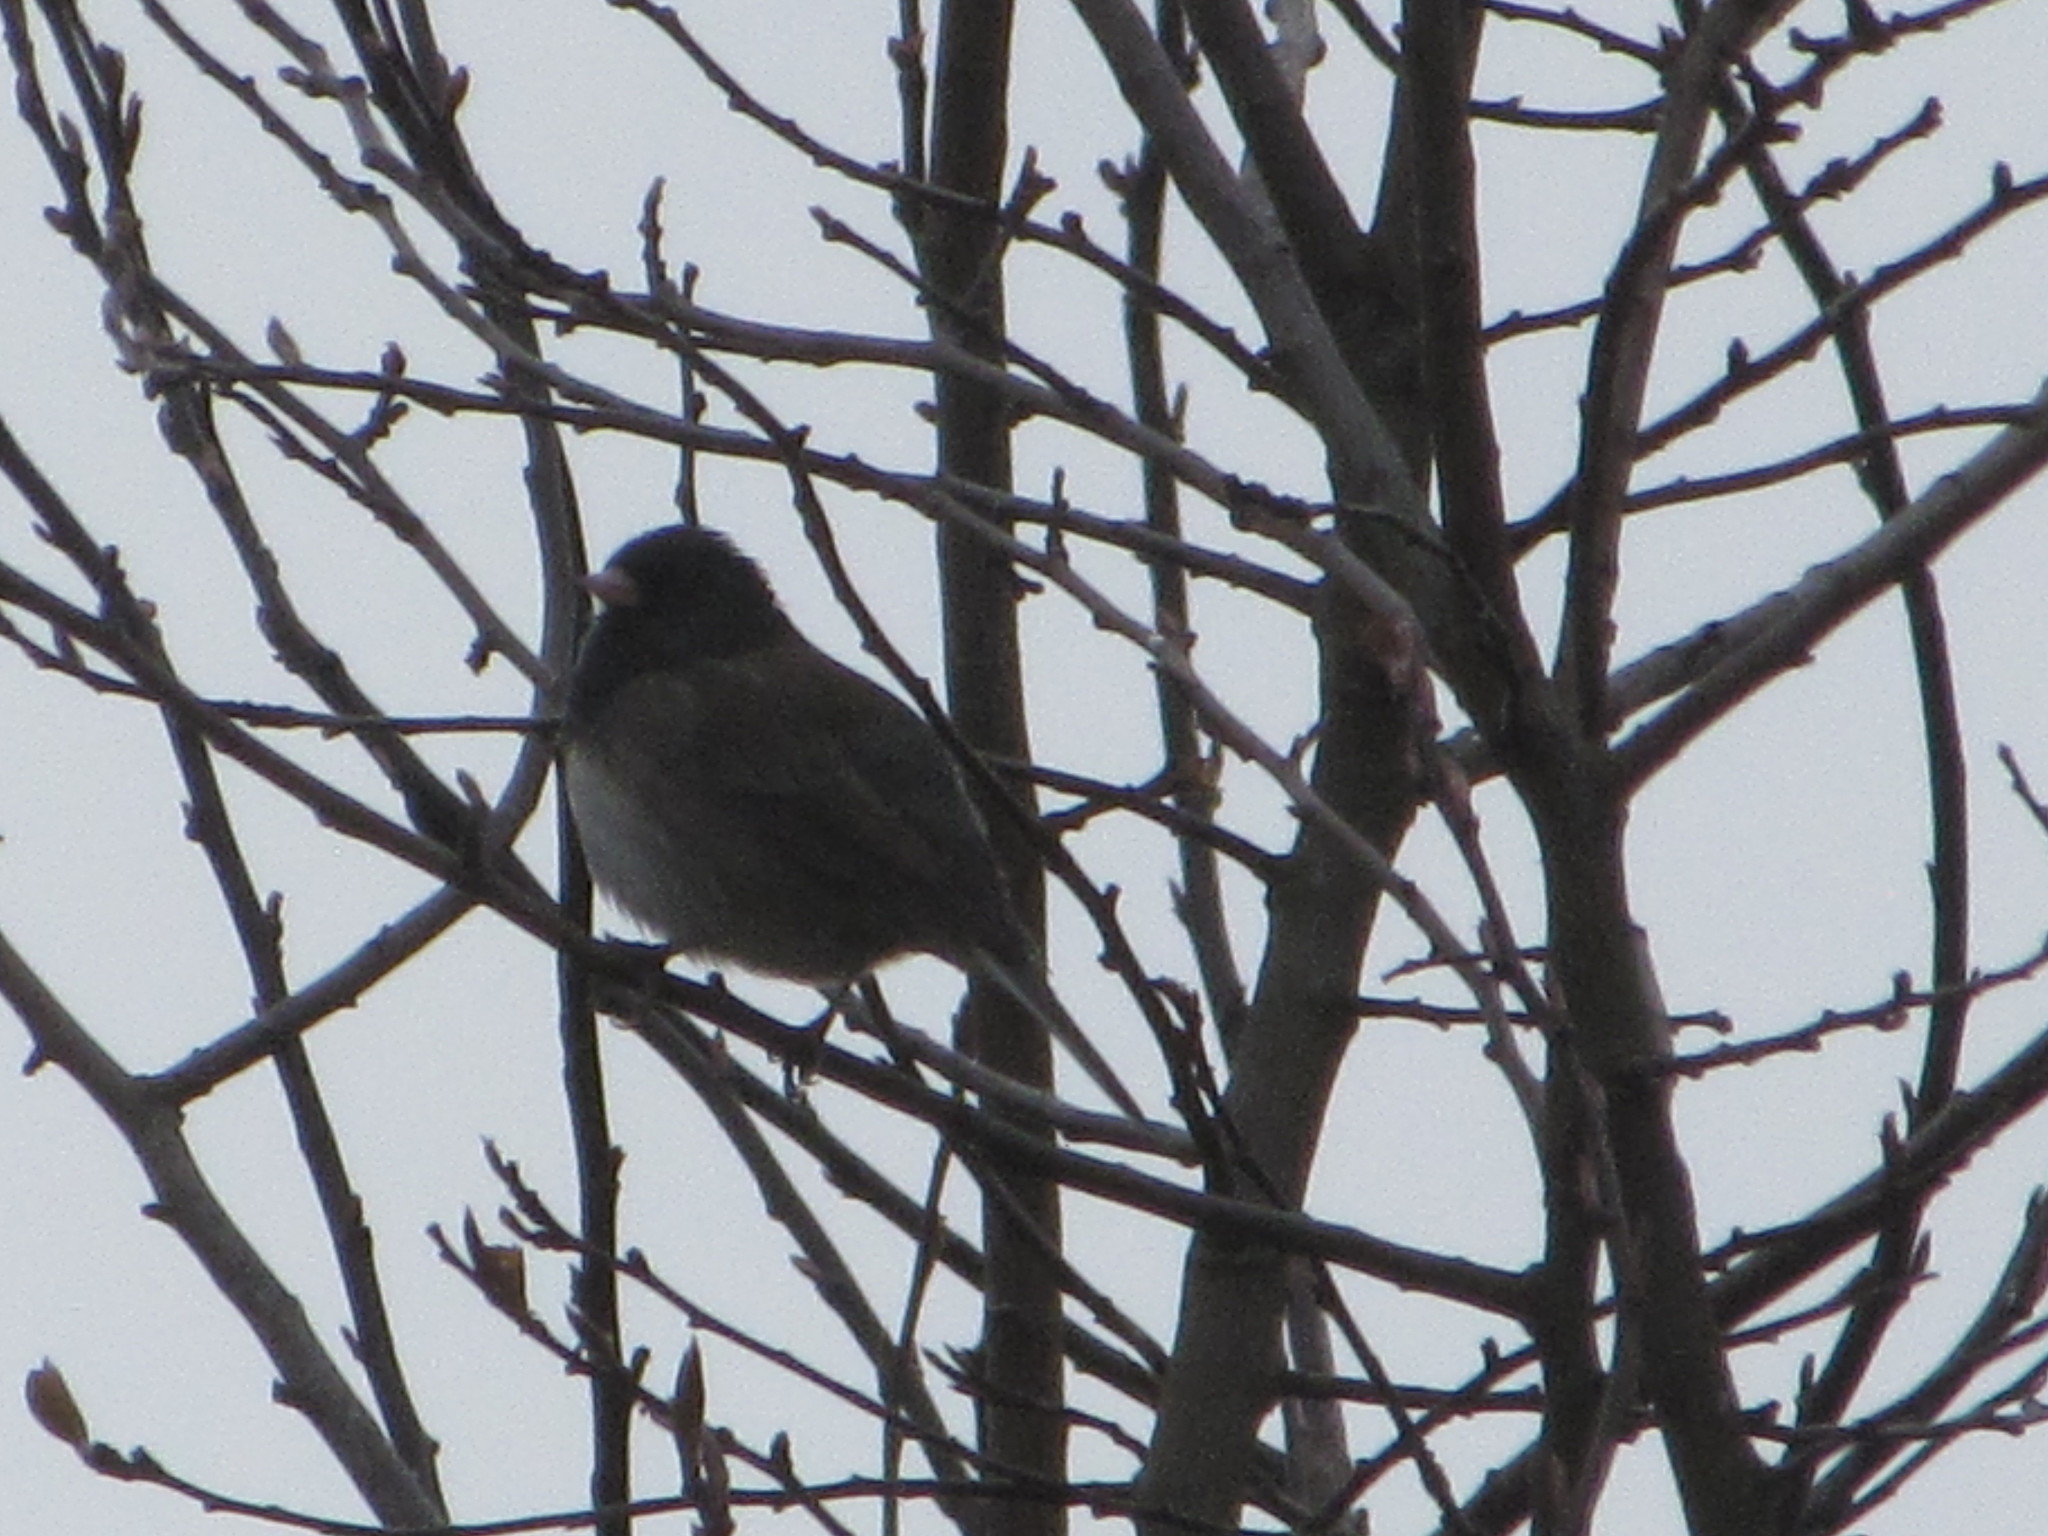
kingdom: Animalia
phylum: Chordata
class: Aves
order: Passeriformes
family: Passerellidae
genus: Junco
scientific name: Junco hyemalis
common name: Dark-eyed junco
